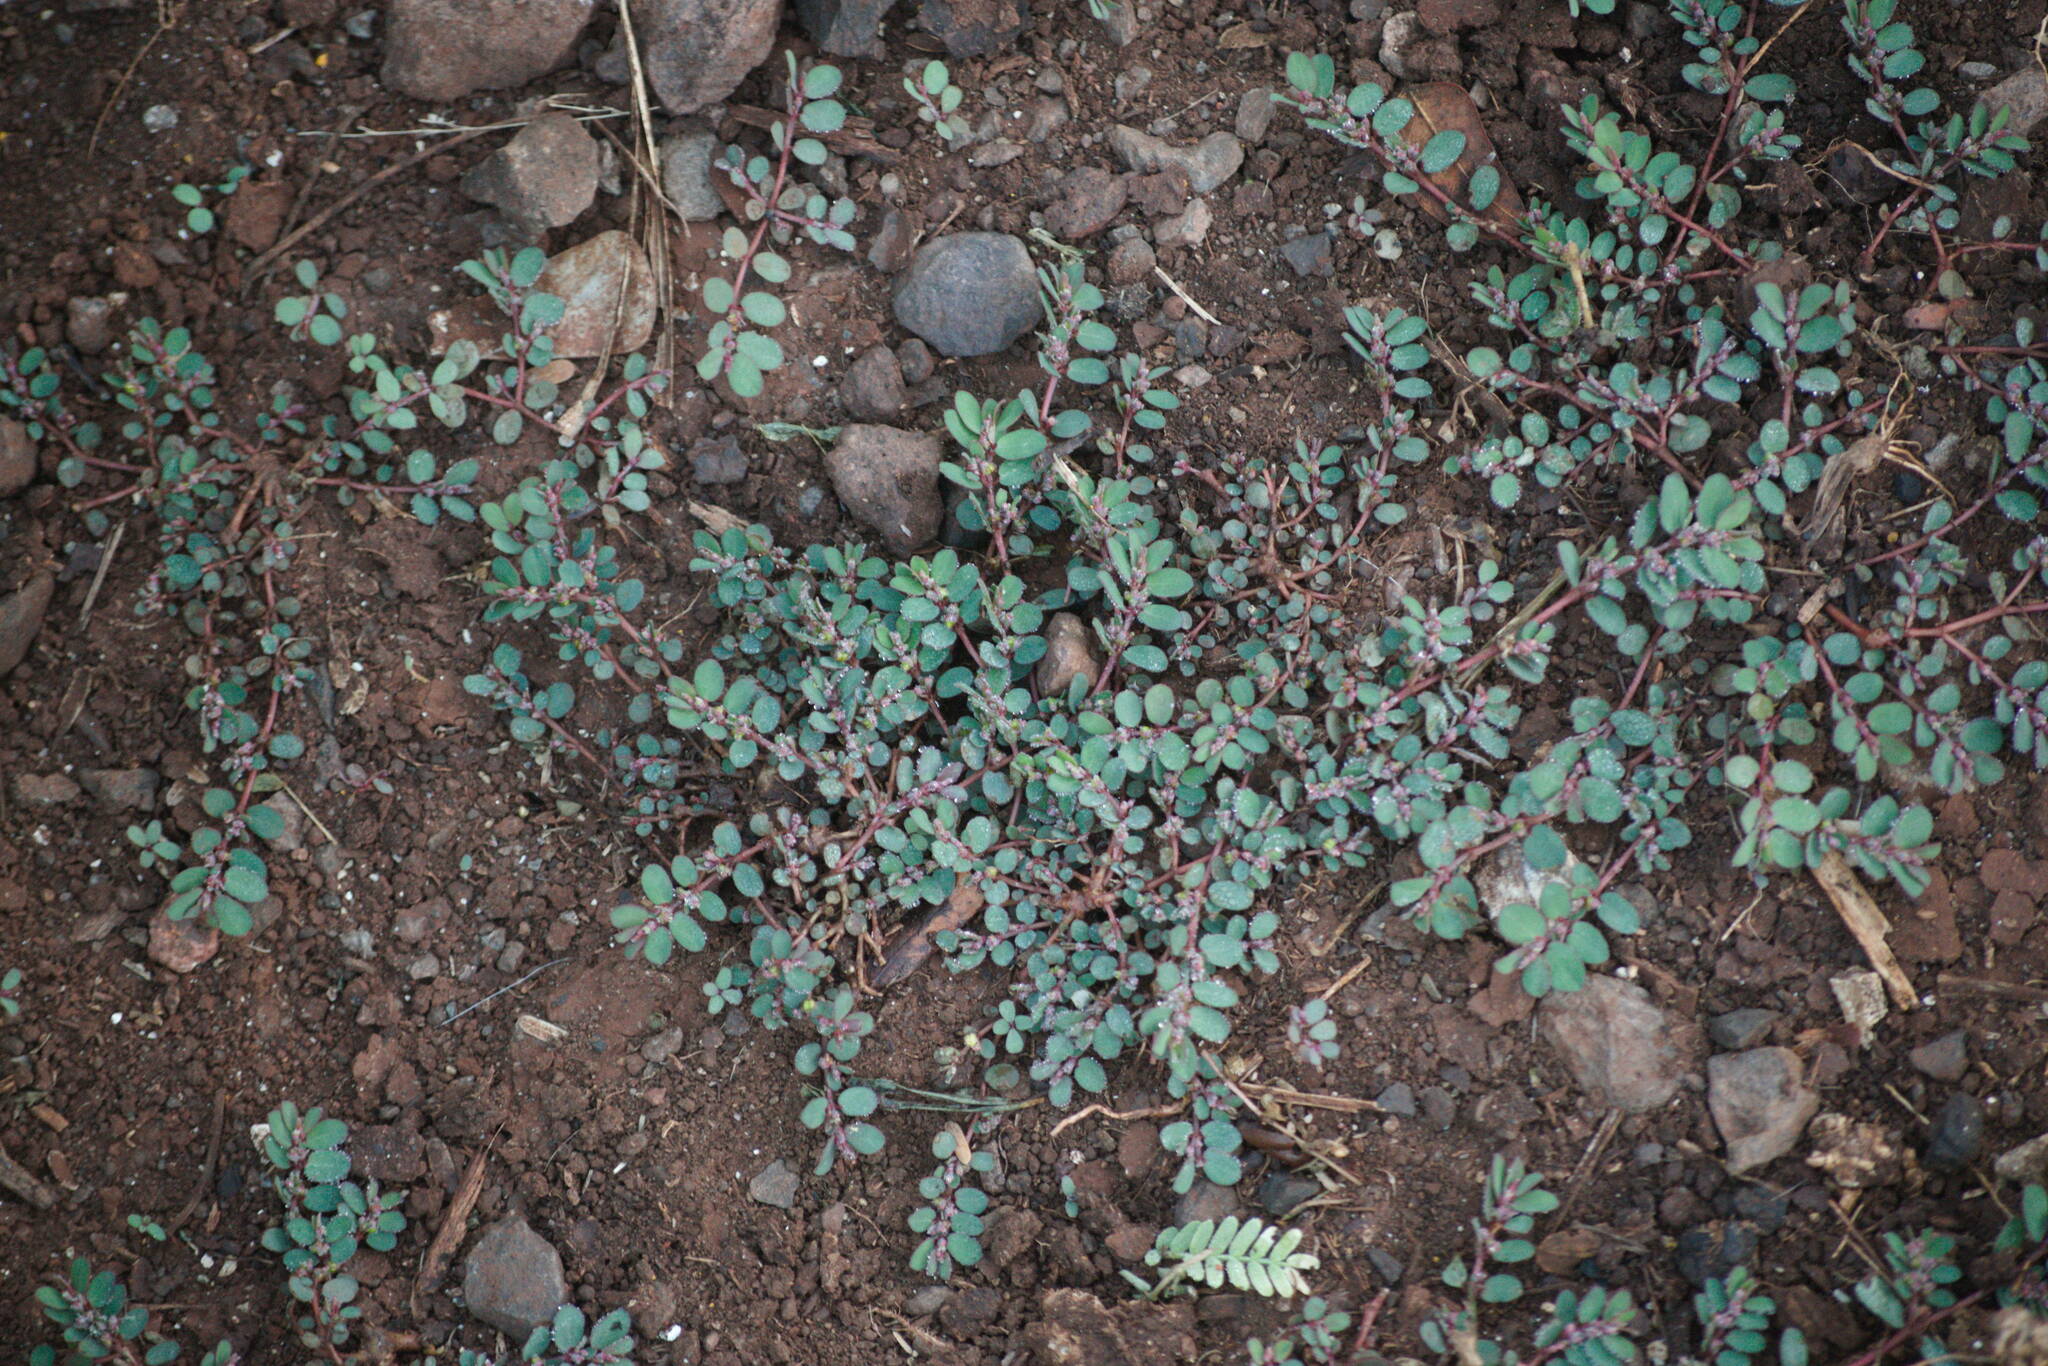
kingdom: Plantae
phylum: Tracheophyta
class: Magnoliopsida
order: Malpighiales
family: Euphorbiaceae
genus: Euphorbia
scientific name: Euphorbia prostrata
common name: Prostrate sandmat
